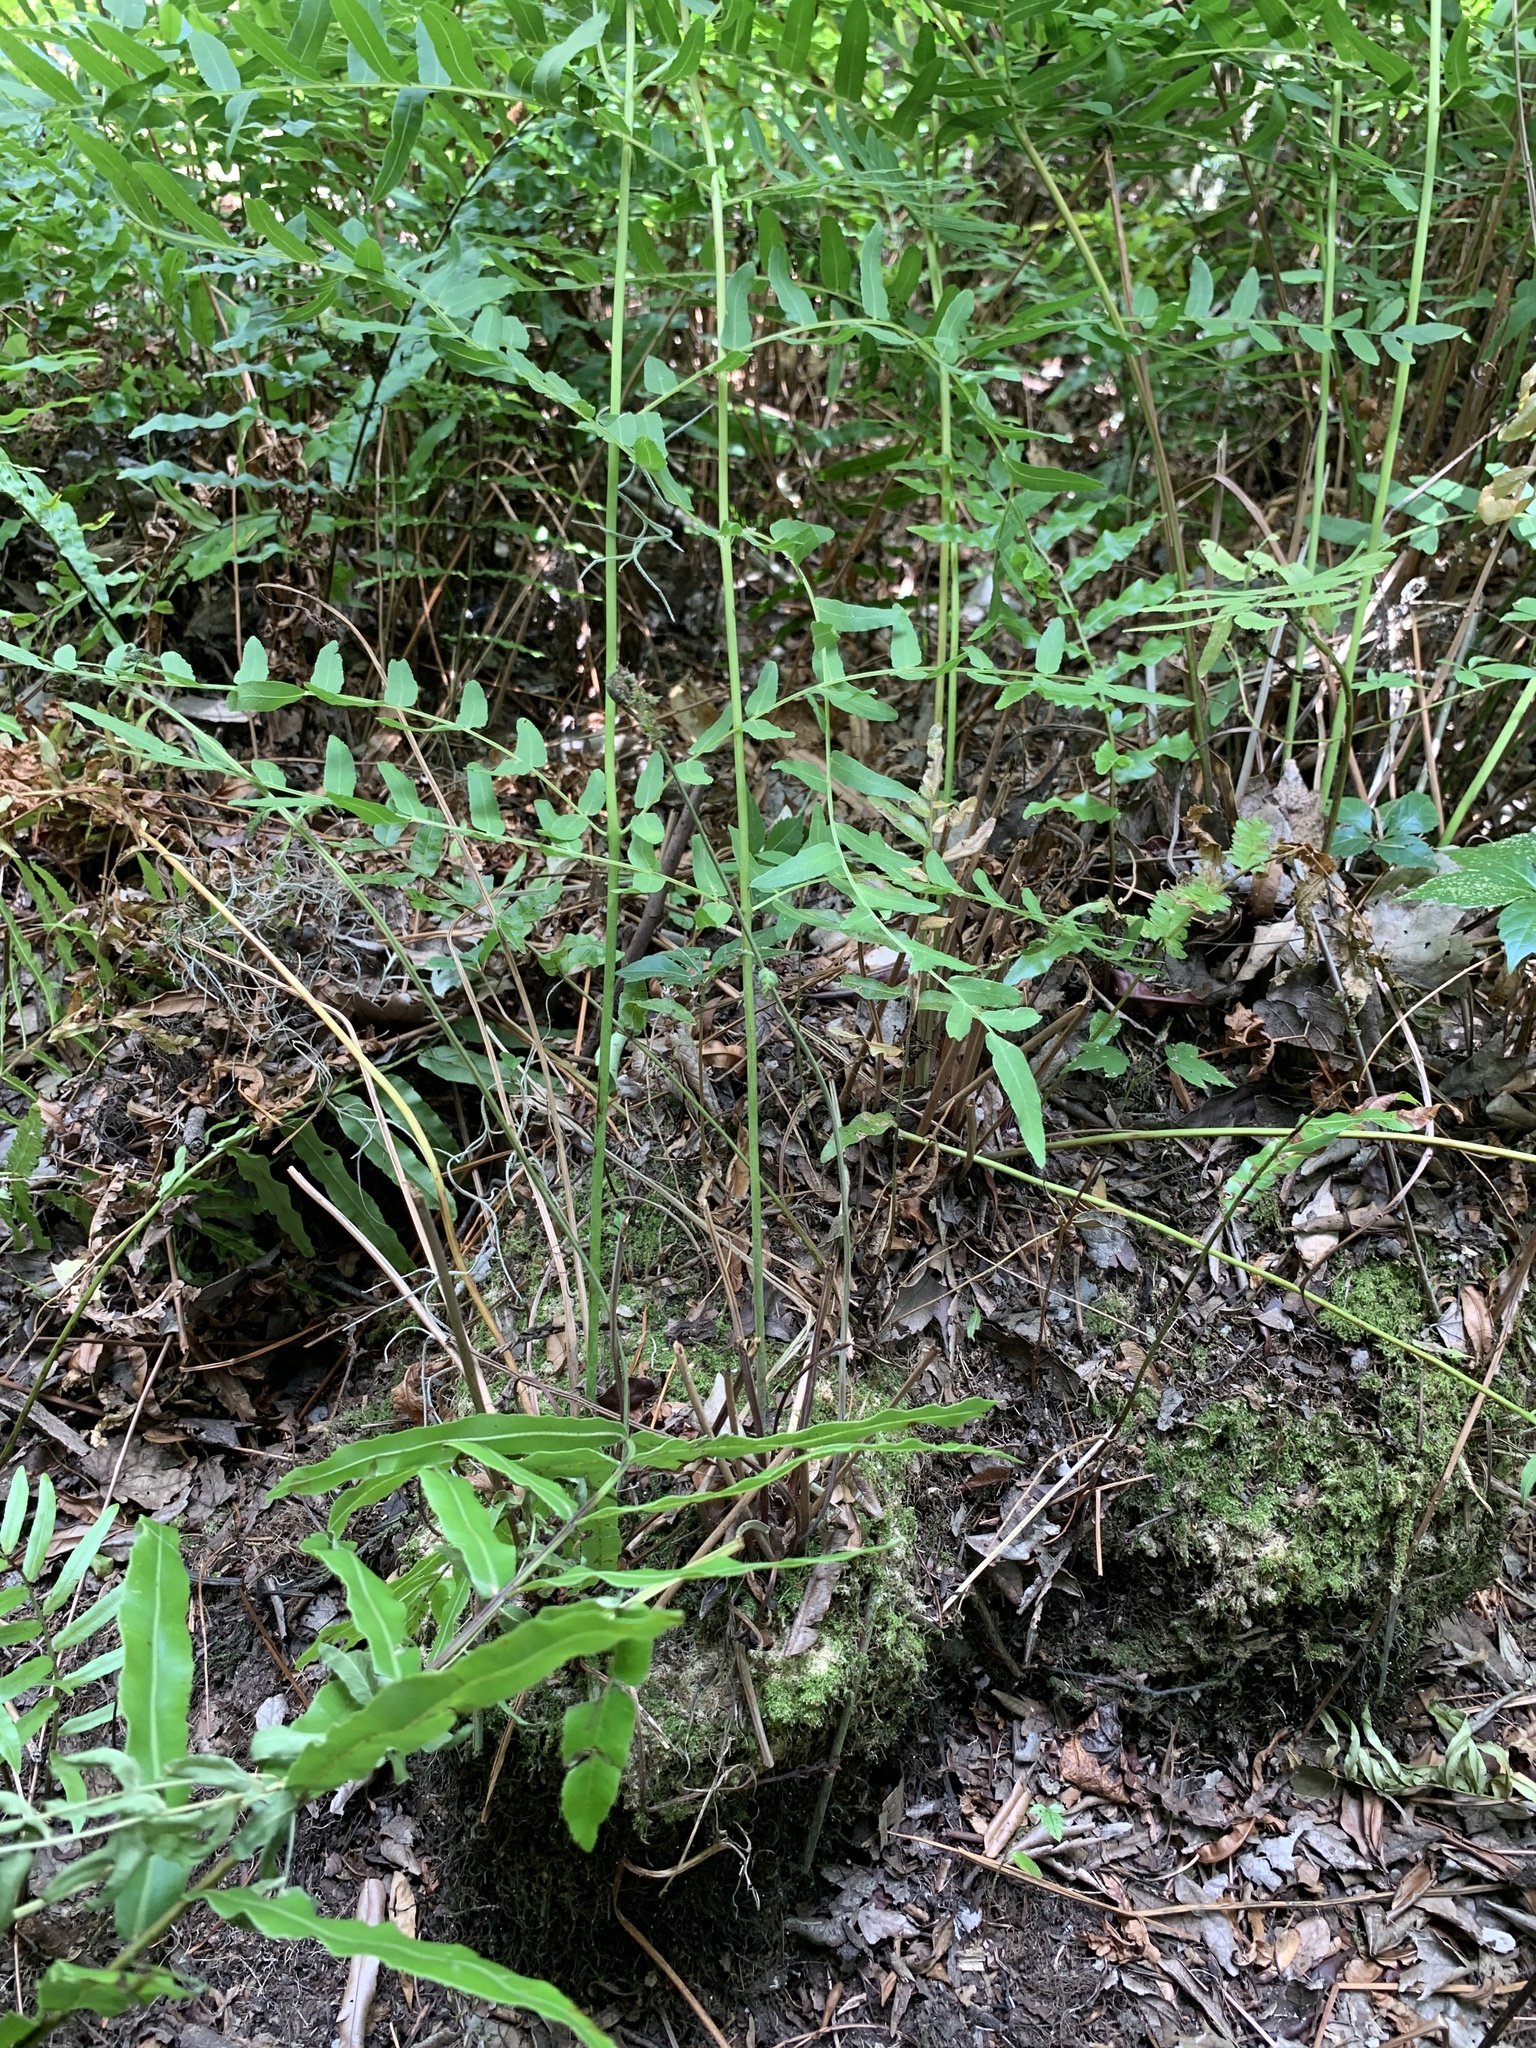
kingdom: Plantae
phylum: Tracheophyta
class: Polypodiopsida
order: Osmundales
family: Osmundaceae
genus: Osmunda
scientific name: Osmunda spectabilis
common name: American royal fern
